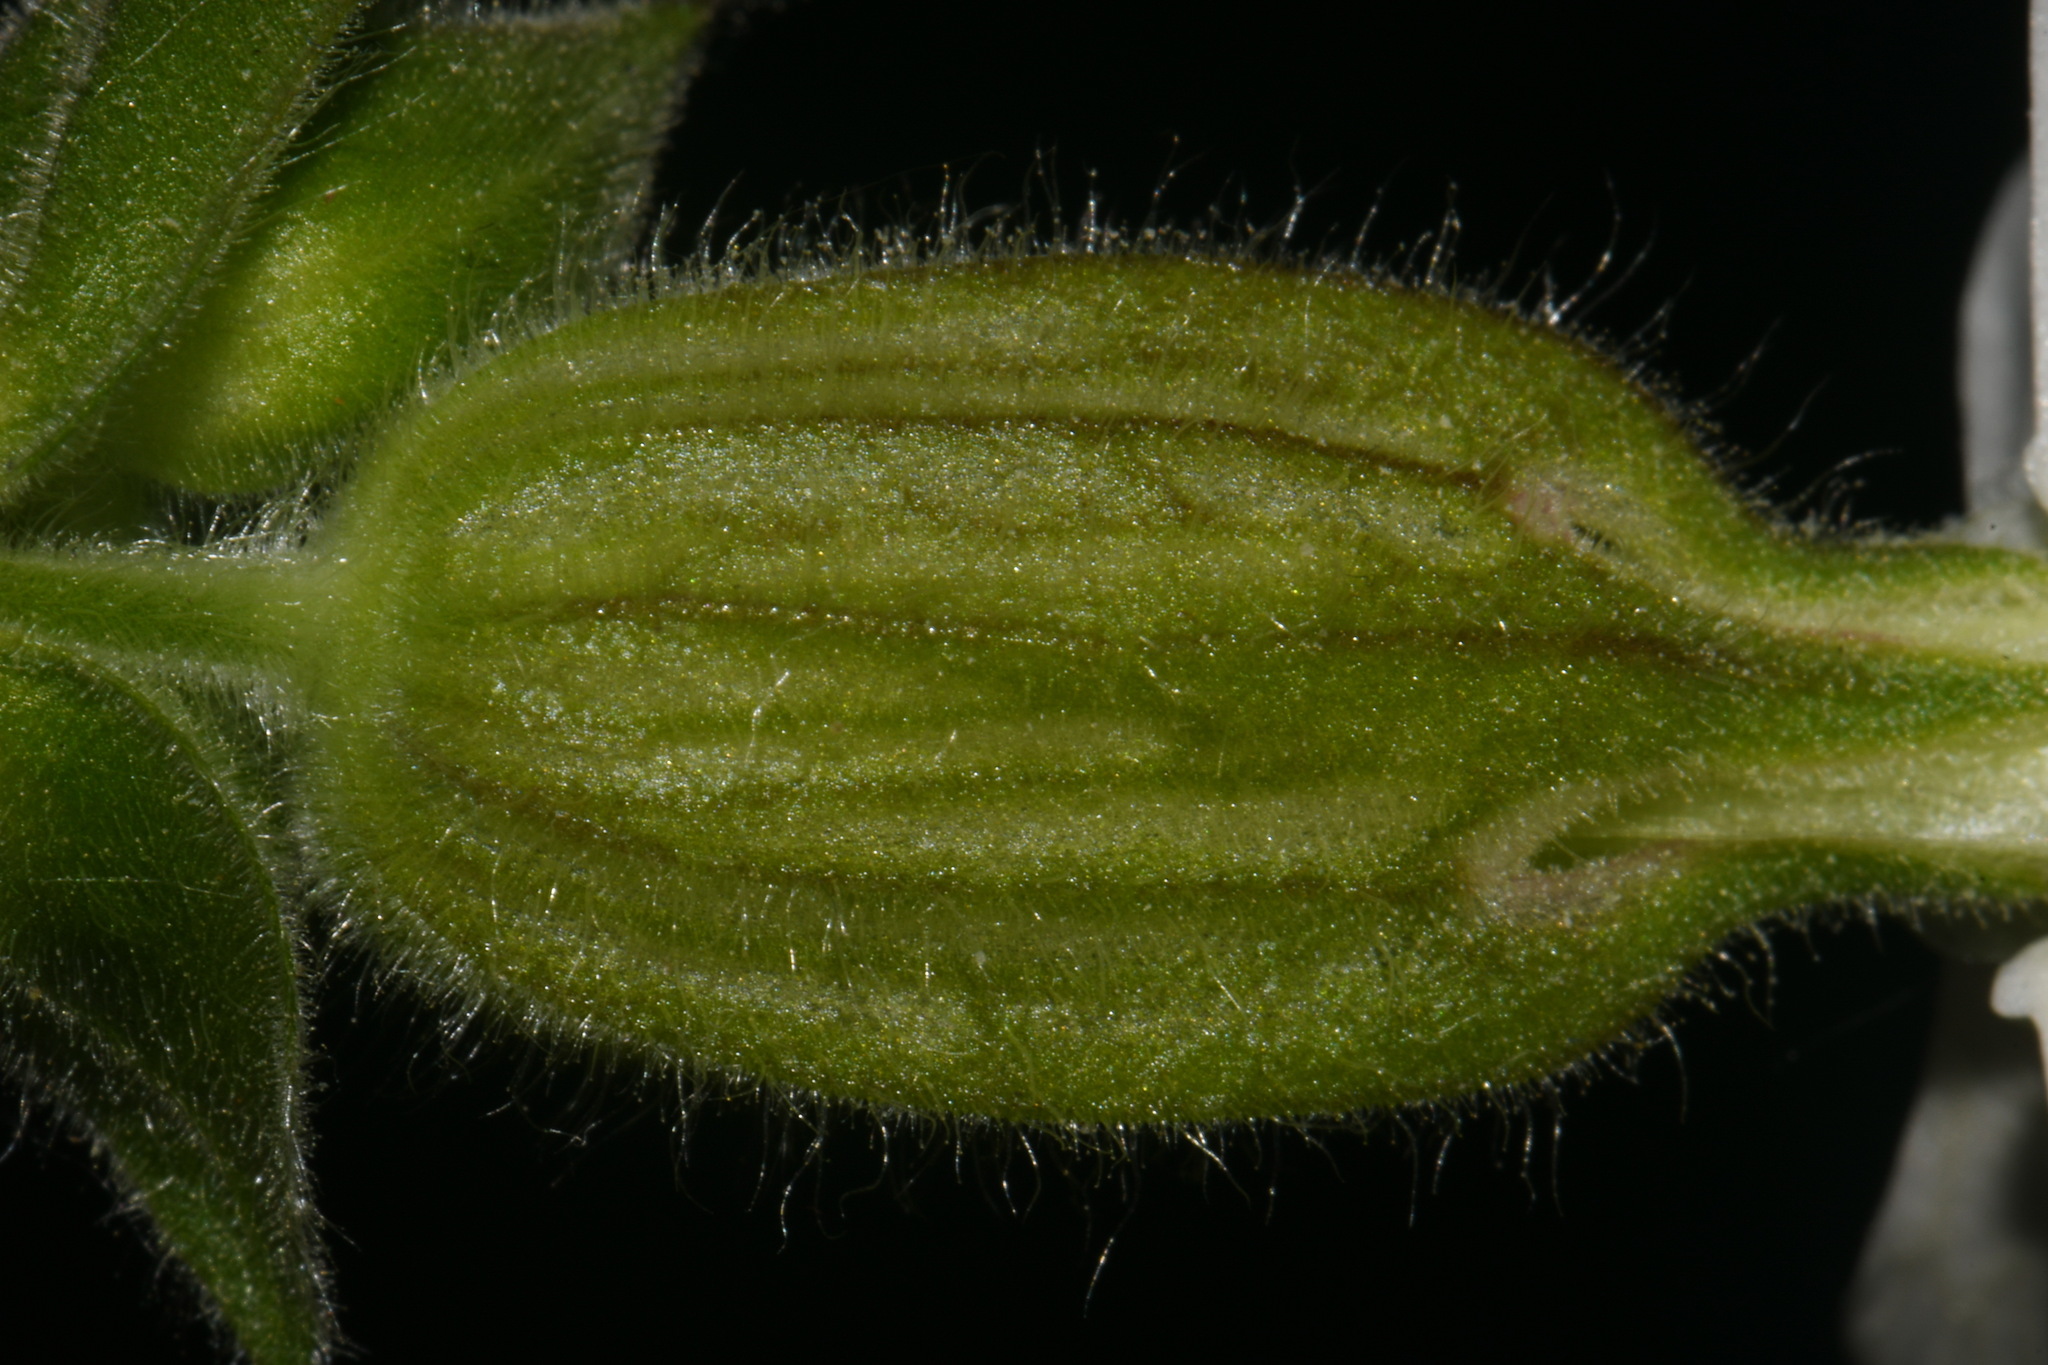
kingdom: Plantae
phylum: Tracheophyta
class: Magnoliopsida
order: Caryophyllales
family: Caryophyllaceae
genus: Silene
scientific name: Silene latifolia
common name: White campion
